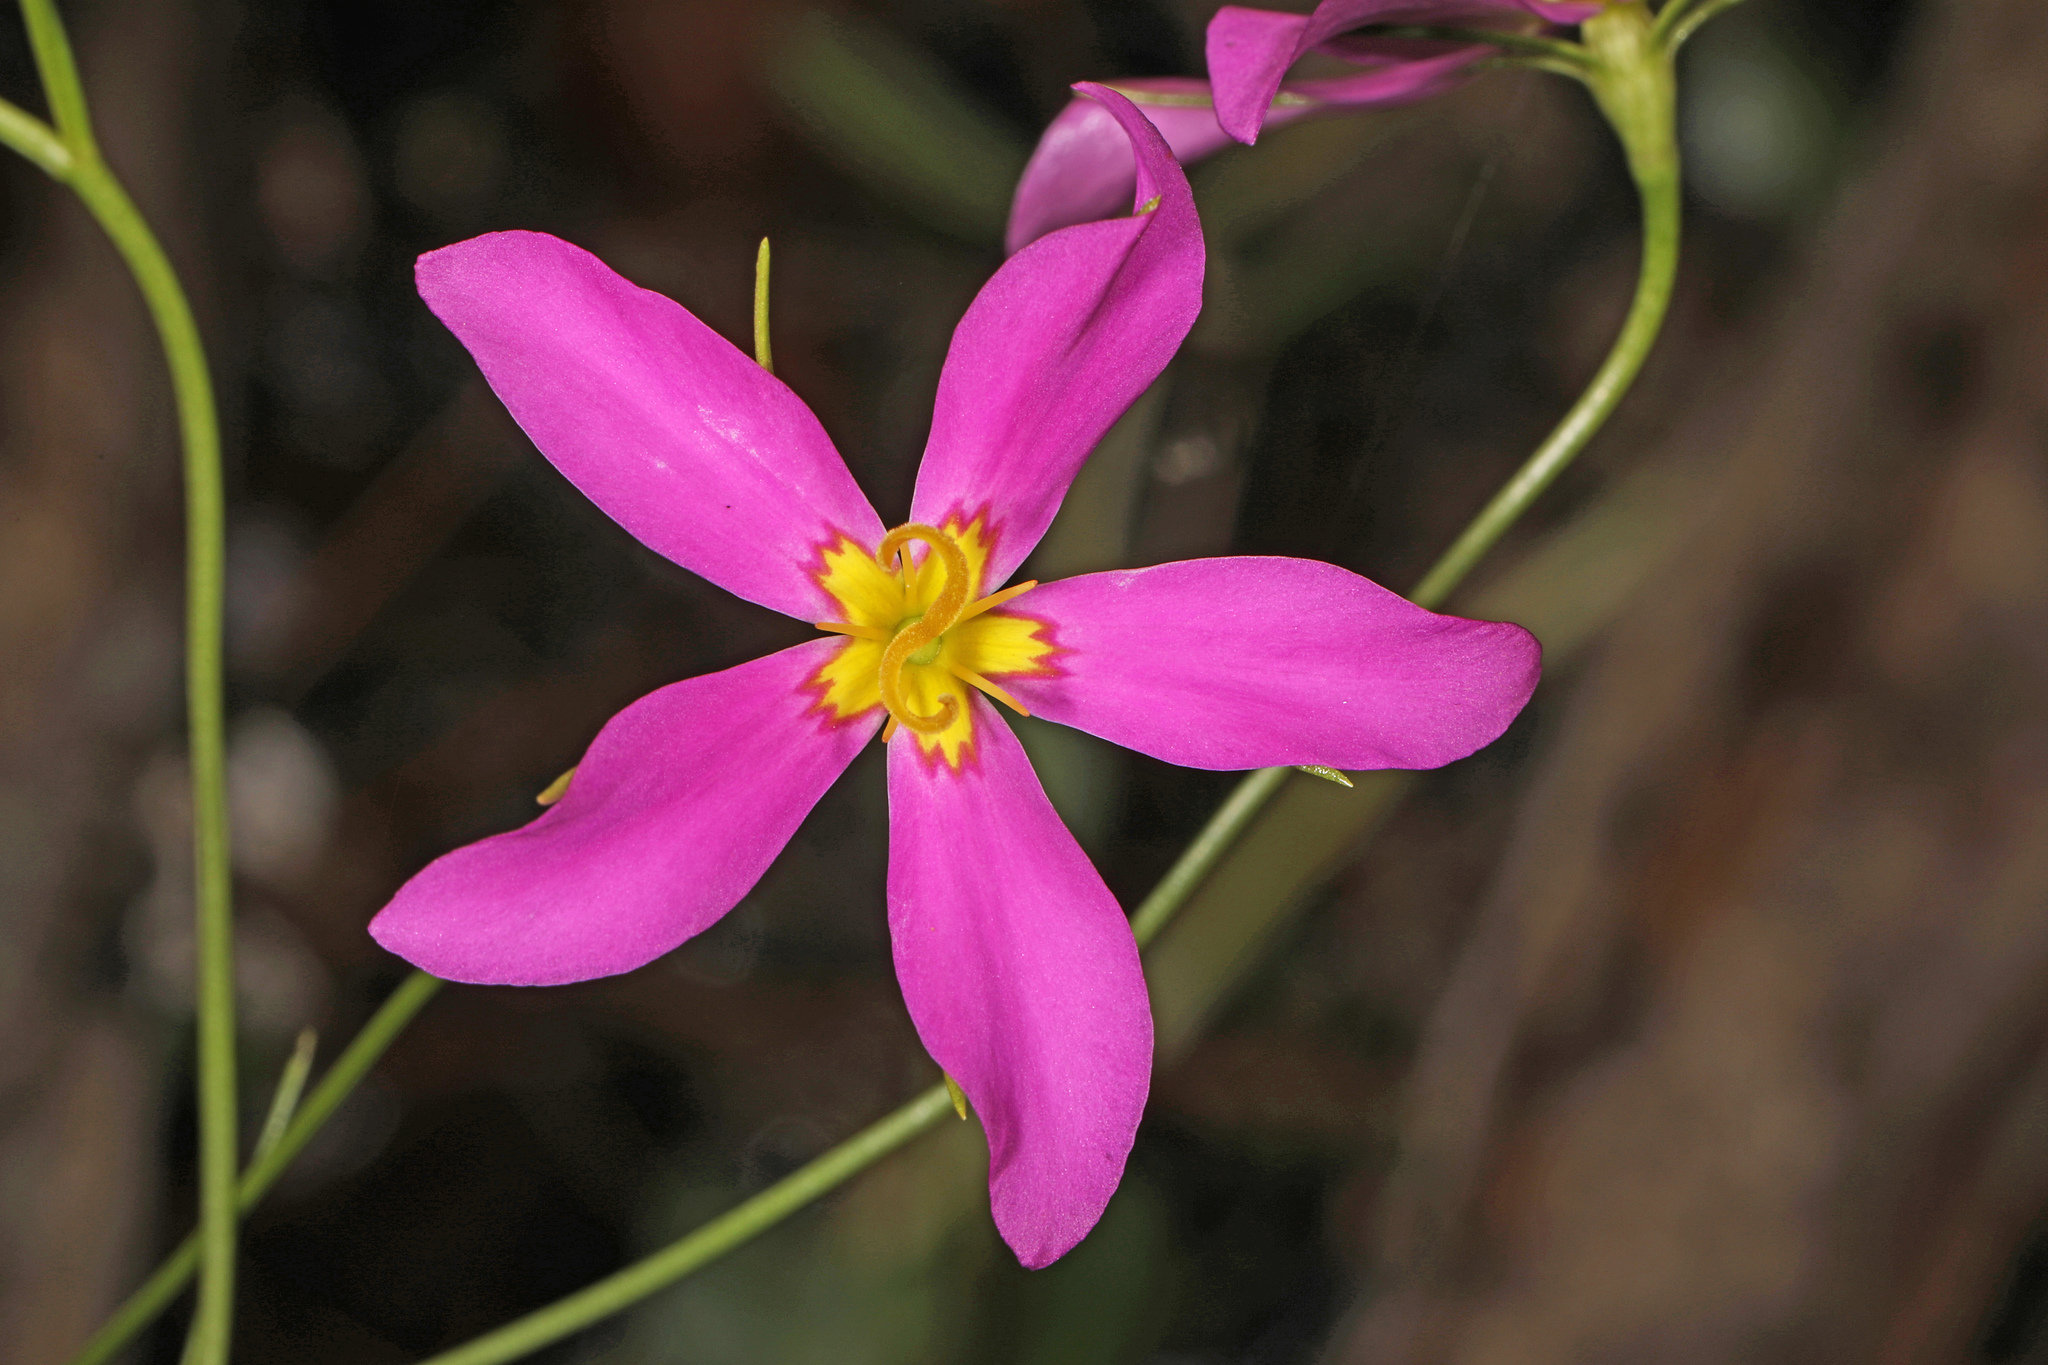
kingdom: Plantae
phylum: Tracheophyta
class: Magnoliopsida
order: Gentianales
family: Gentianaceae
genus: Sabatia
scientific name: Sabatia stellaris
